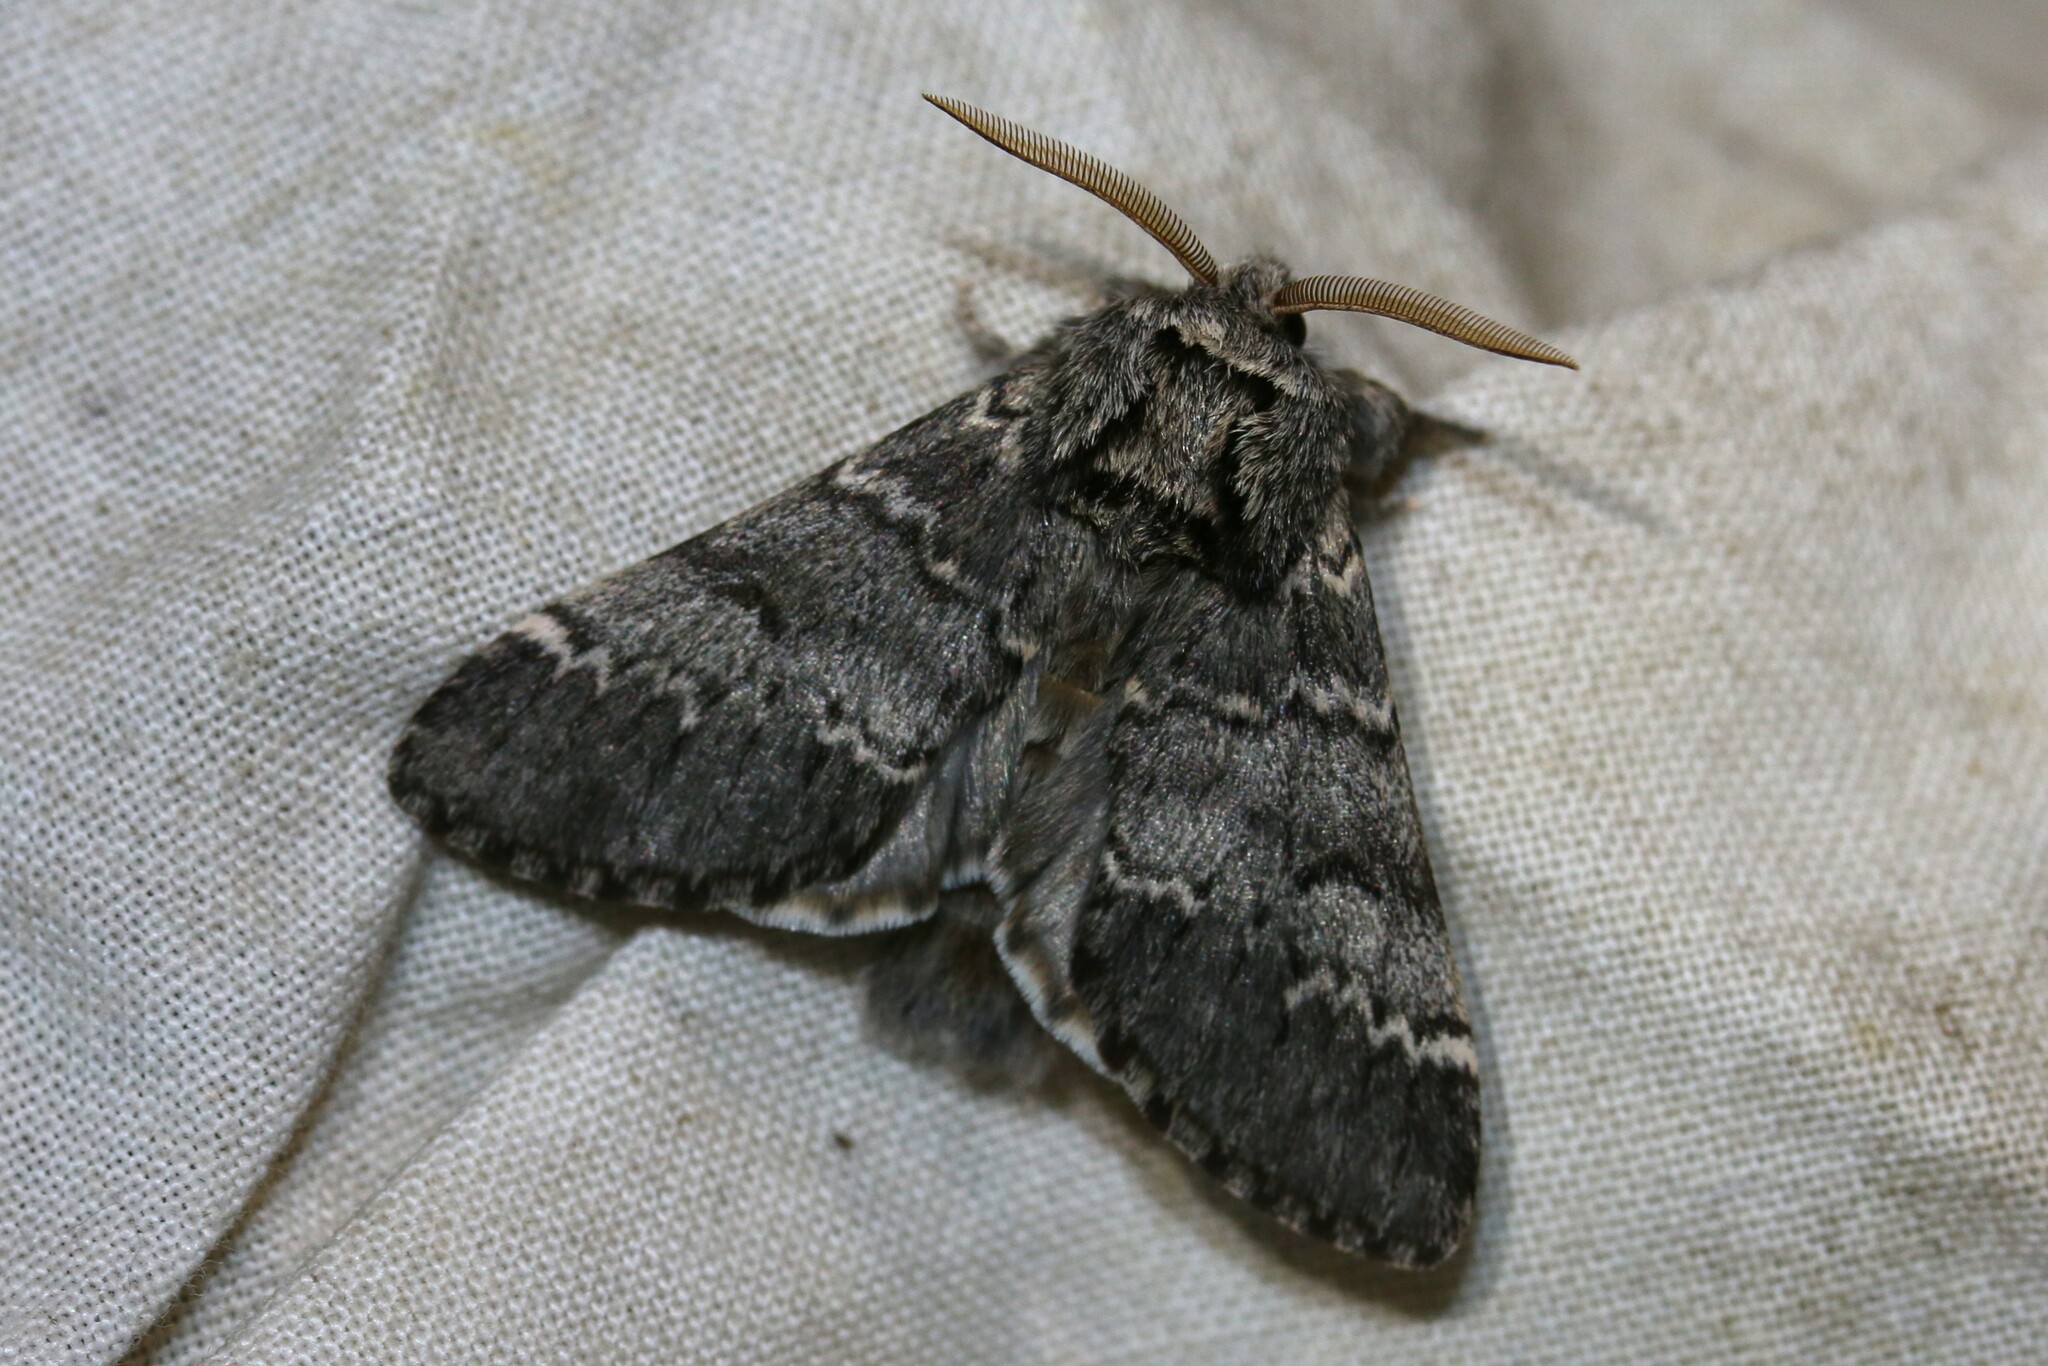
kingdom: Animalia
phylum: Arthropoda
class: Insecta
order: Lepidoptera
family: Notodontidae
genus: Drymonia
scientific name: Drymonia ruficornis
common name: Lunar marbled brown
